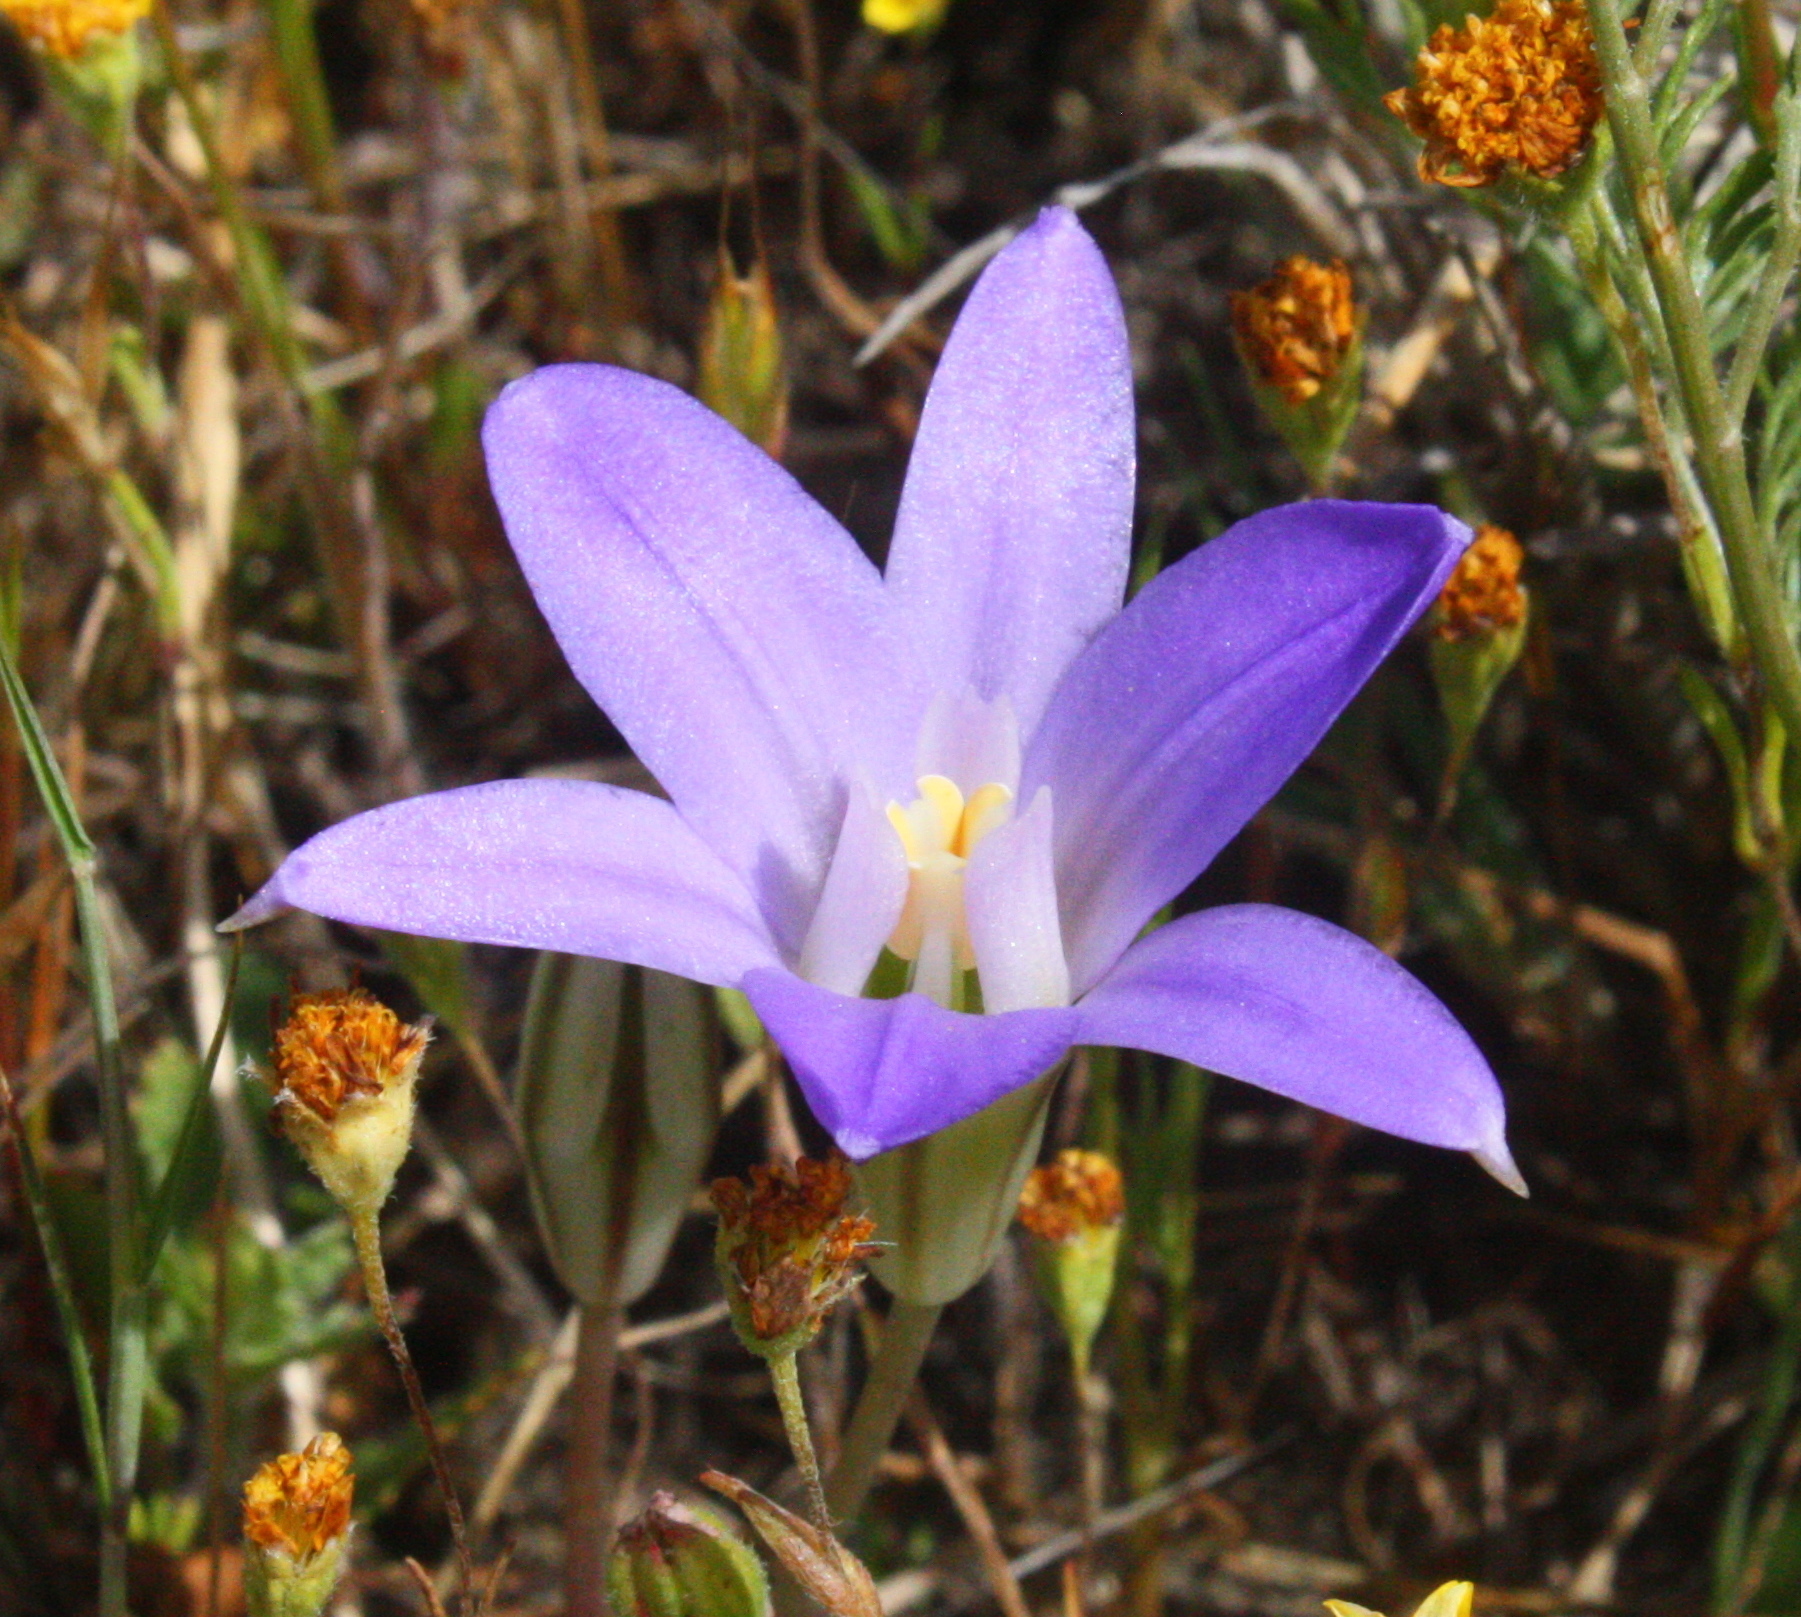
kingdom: Plantae
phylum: Tracheophyta
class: Liliopsida
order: Asparagales
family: Asparagaceae
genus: Brodiaea
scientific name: Brodiaea terrestris
